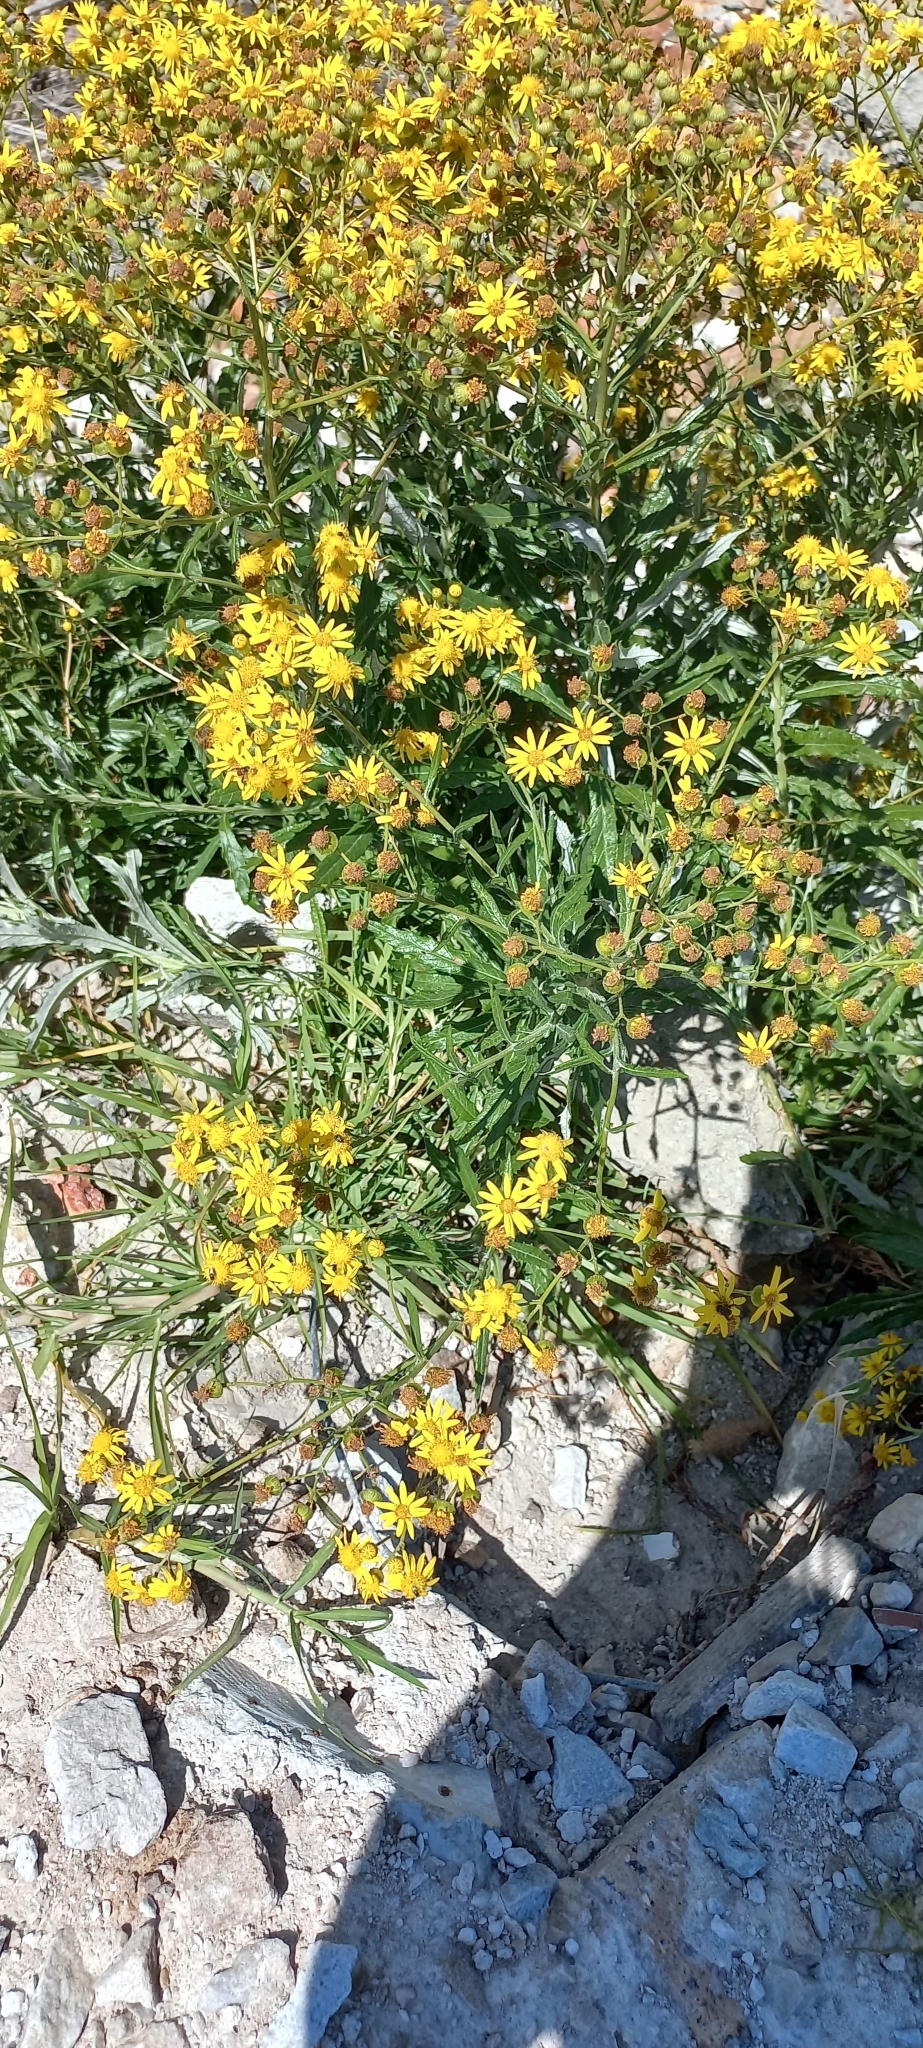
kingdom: Plantae
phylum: Tracheophyta
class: Magnoliopsida
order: Asterales
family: Asteraceae
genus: Senecio
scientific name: Senecio pterophorus
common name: Shoddy ragwort
